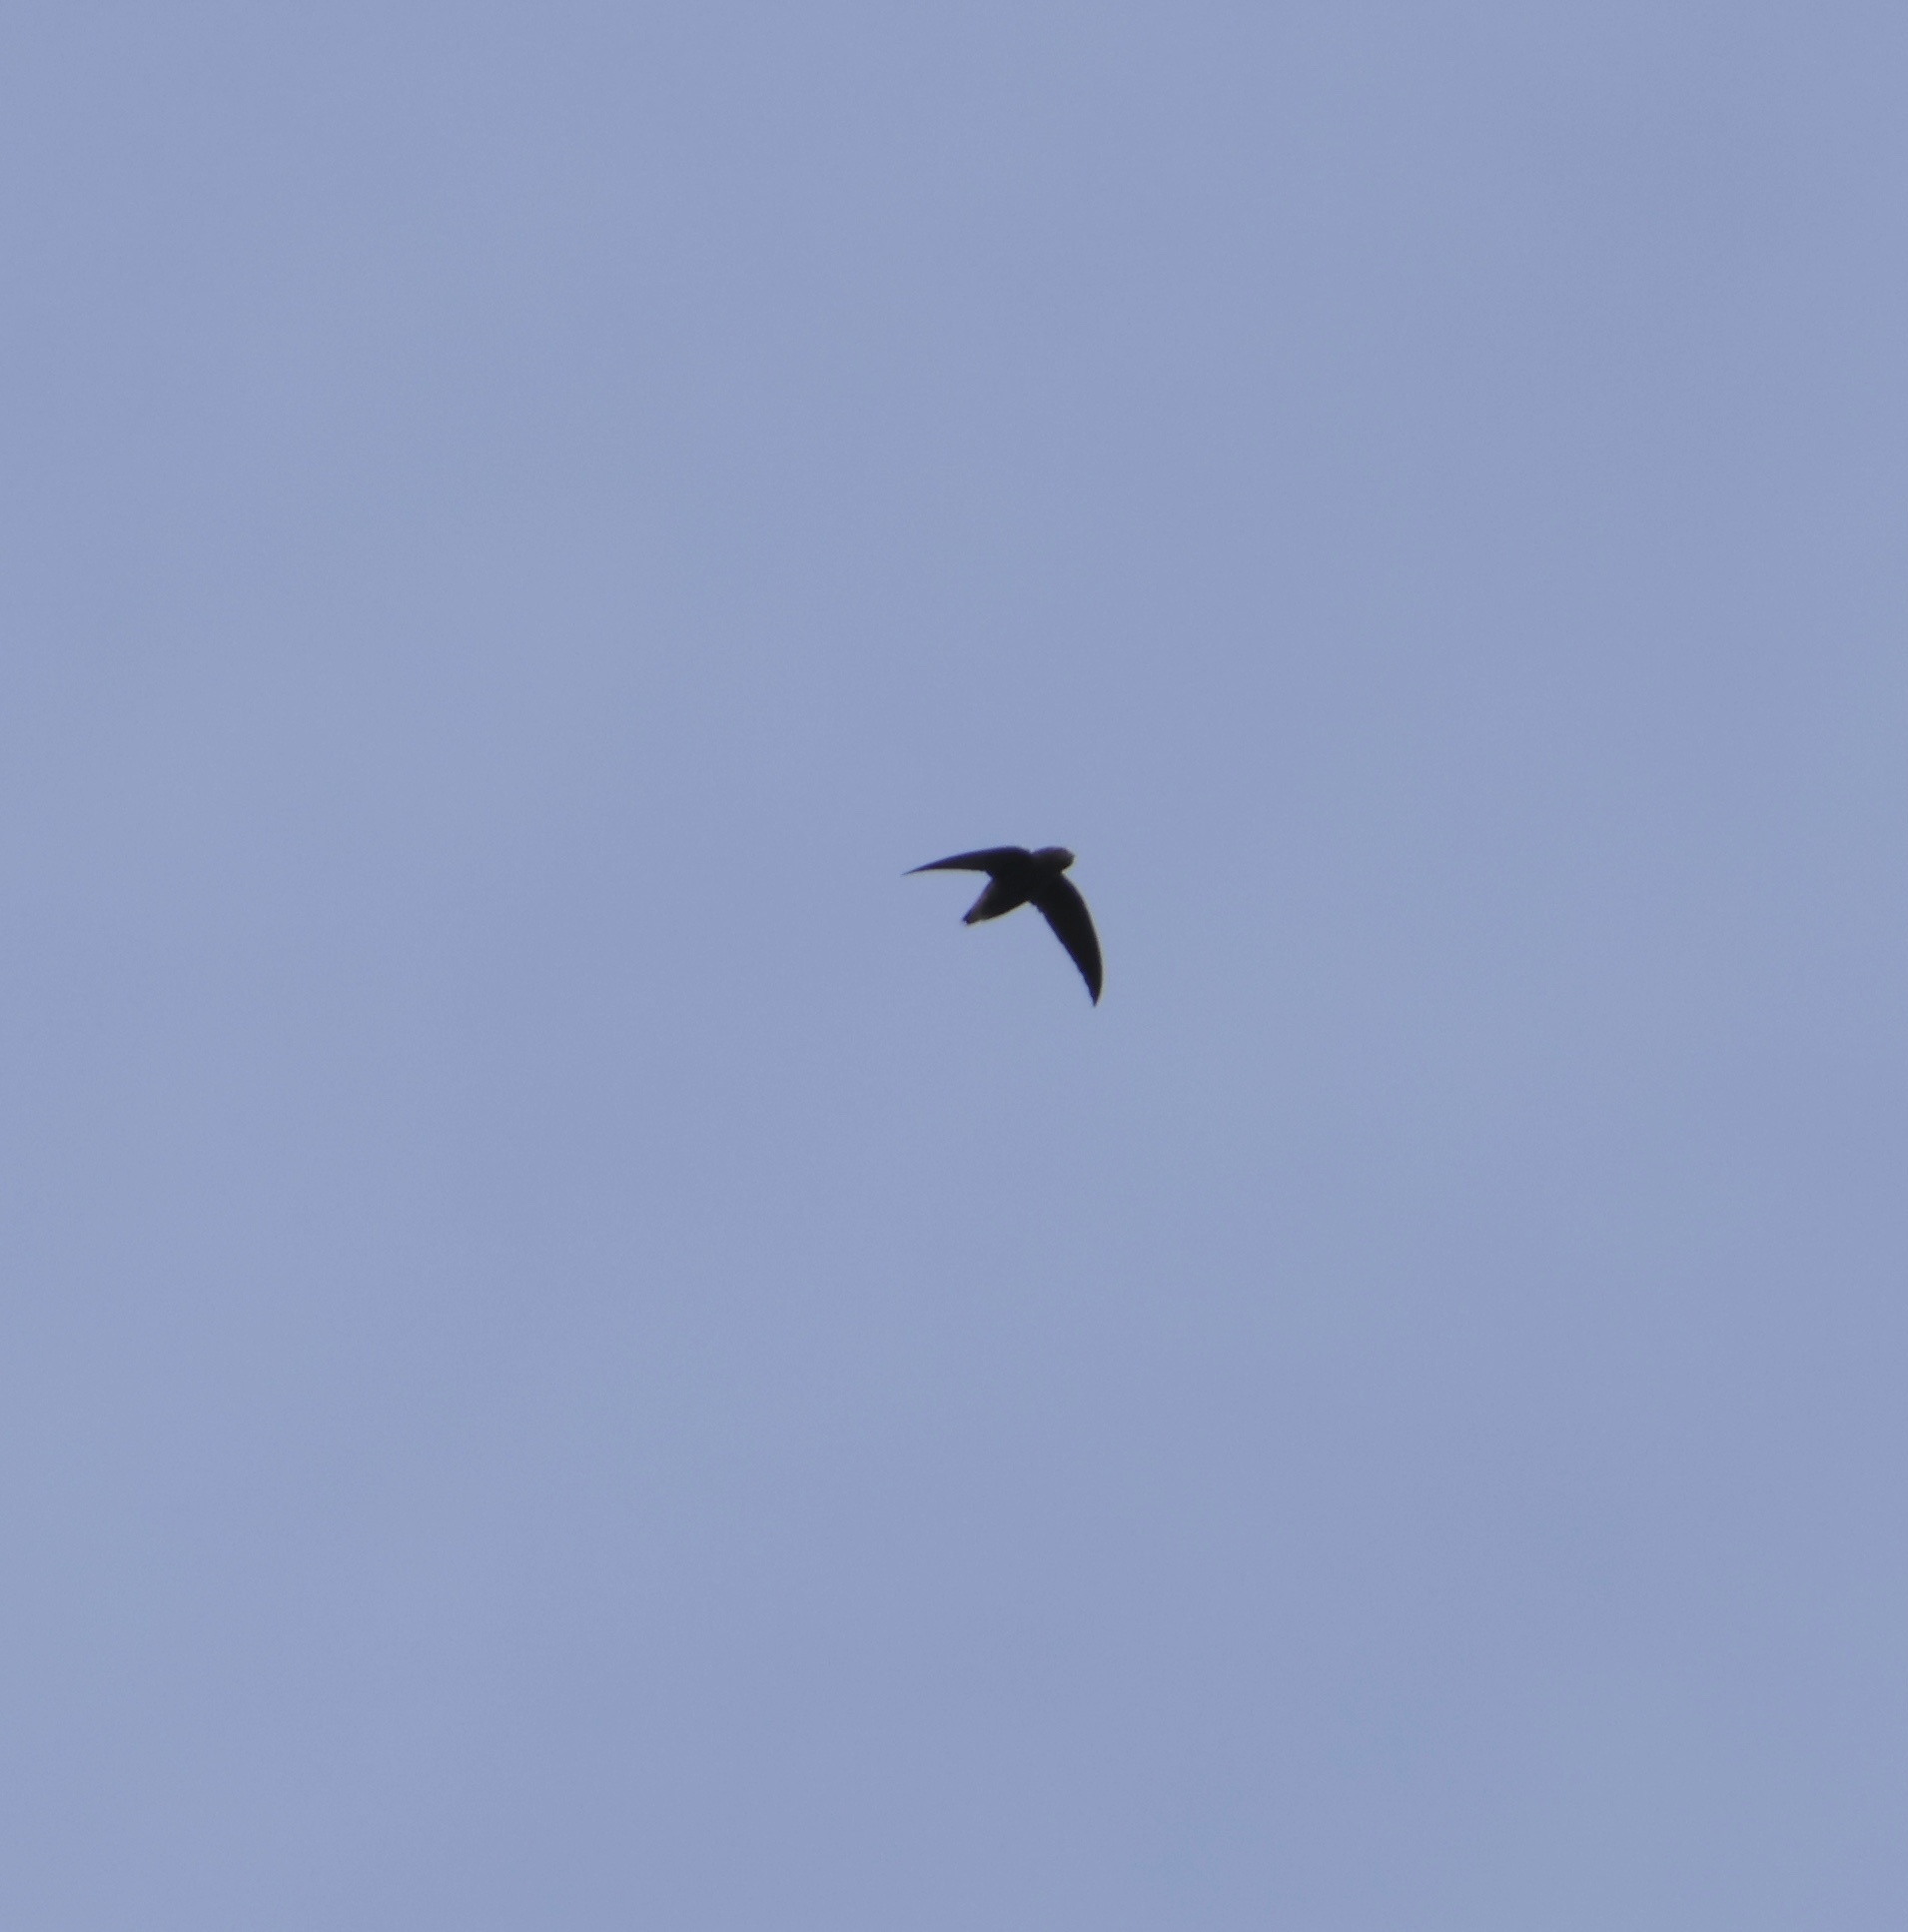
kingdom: Animalia
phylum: Chordata
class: Aves
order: Apodiformes
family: Apodidae
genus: Chaetura
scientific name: Chaetura brachyura
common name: Short-tailed swift
